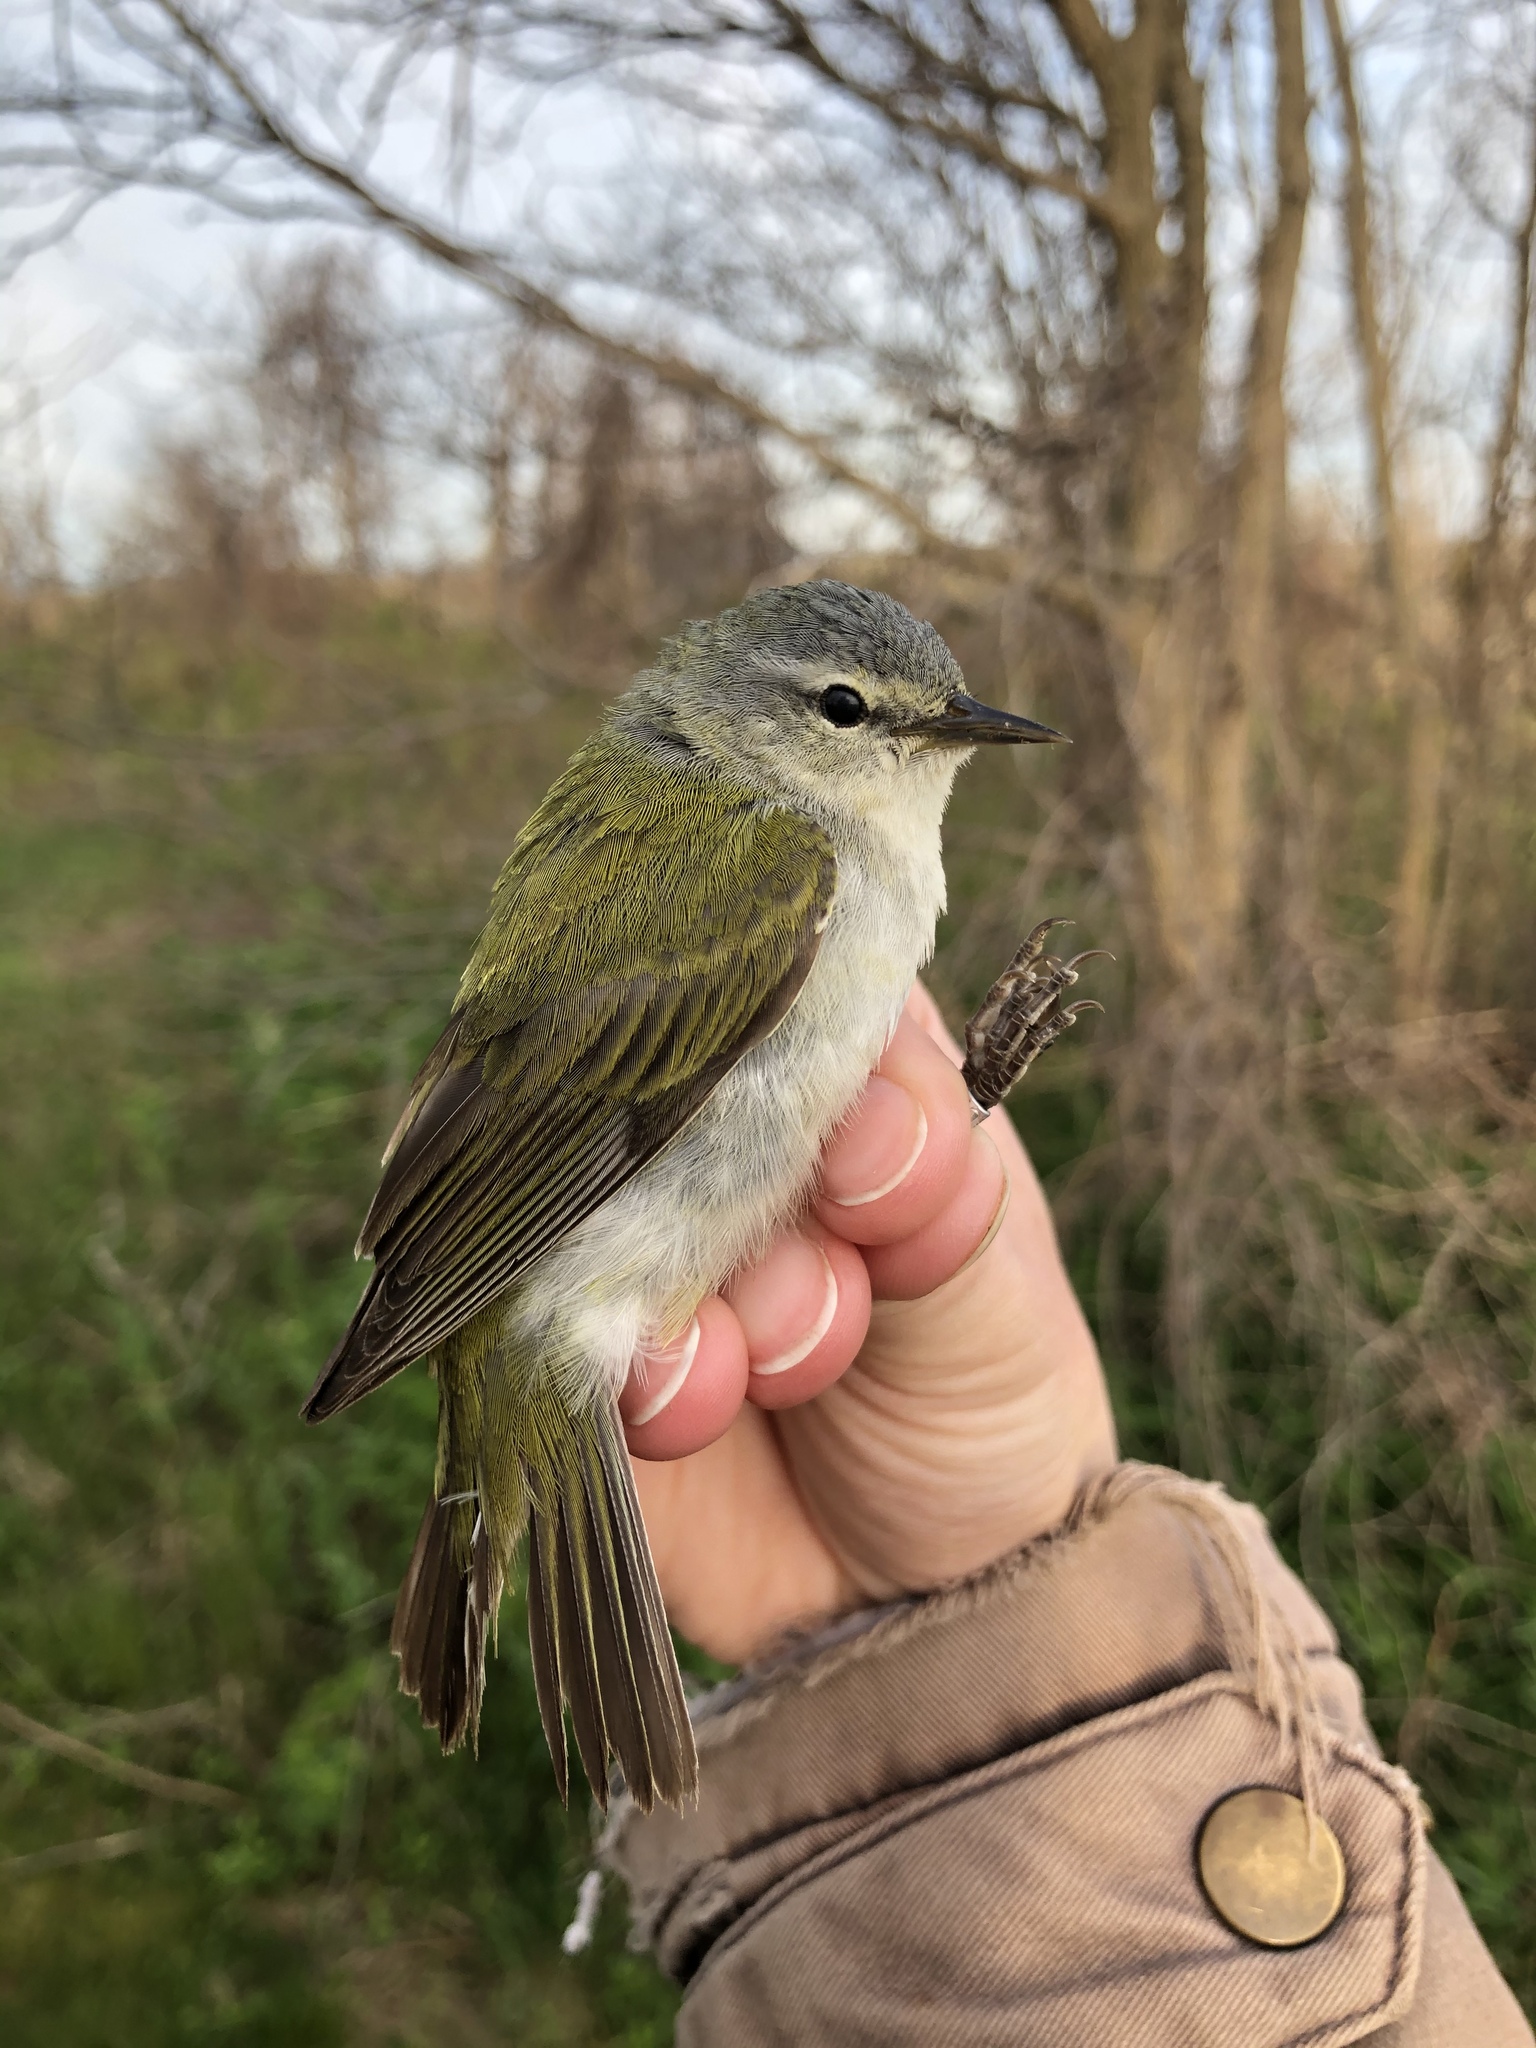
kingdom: Animalia
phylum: Chordata
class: Aves
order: Passeriformes
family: Parulidae
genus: Leiothlypis
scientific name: Leiothlypis peregrina
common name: Tennessee warbler
